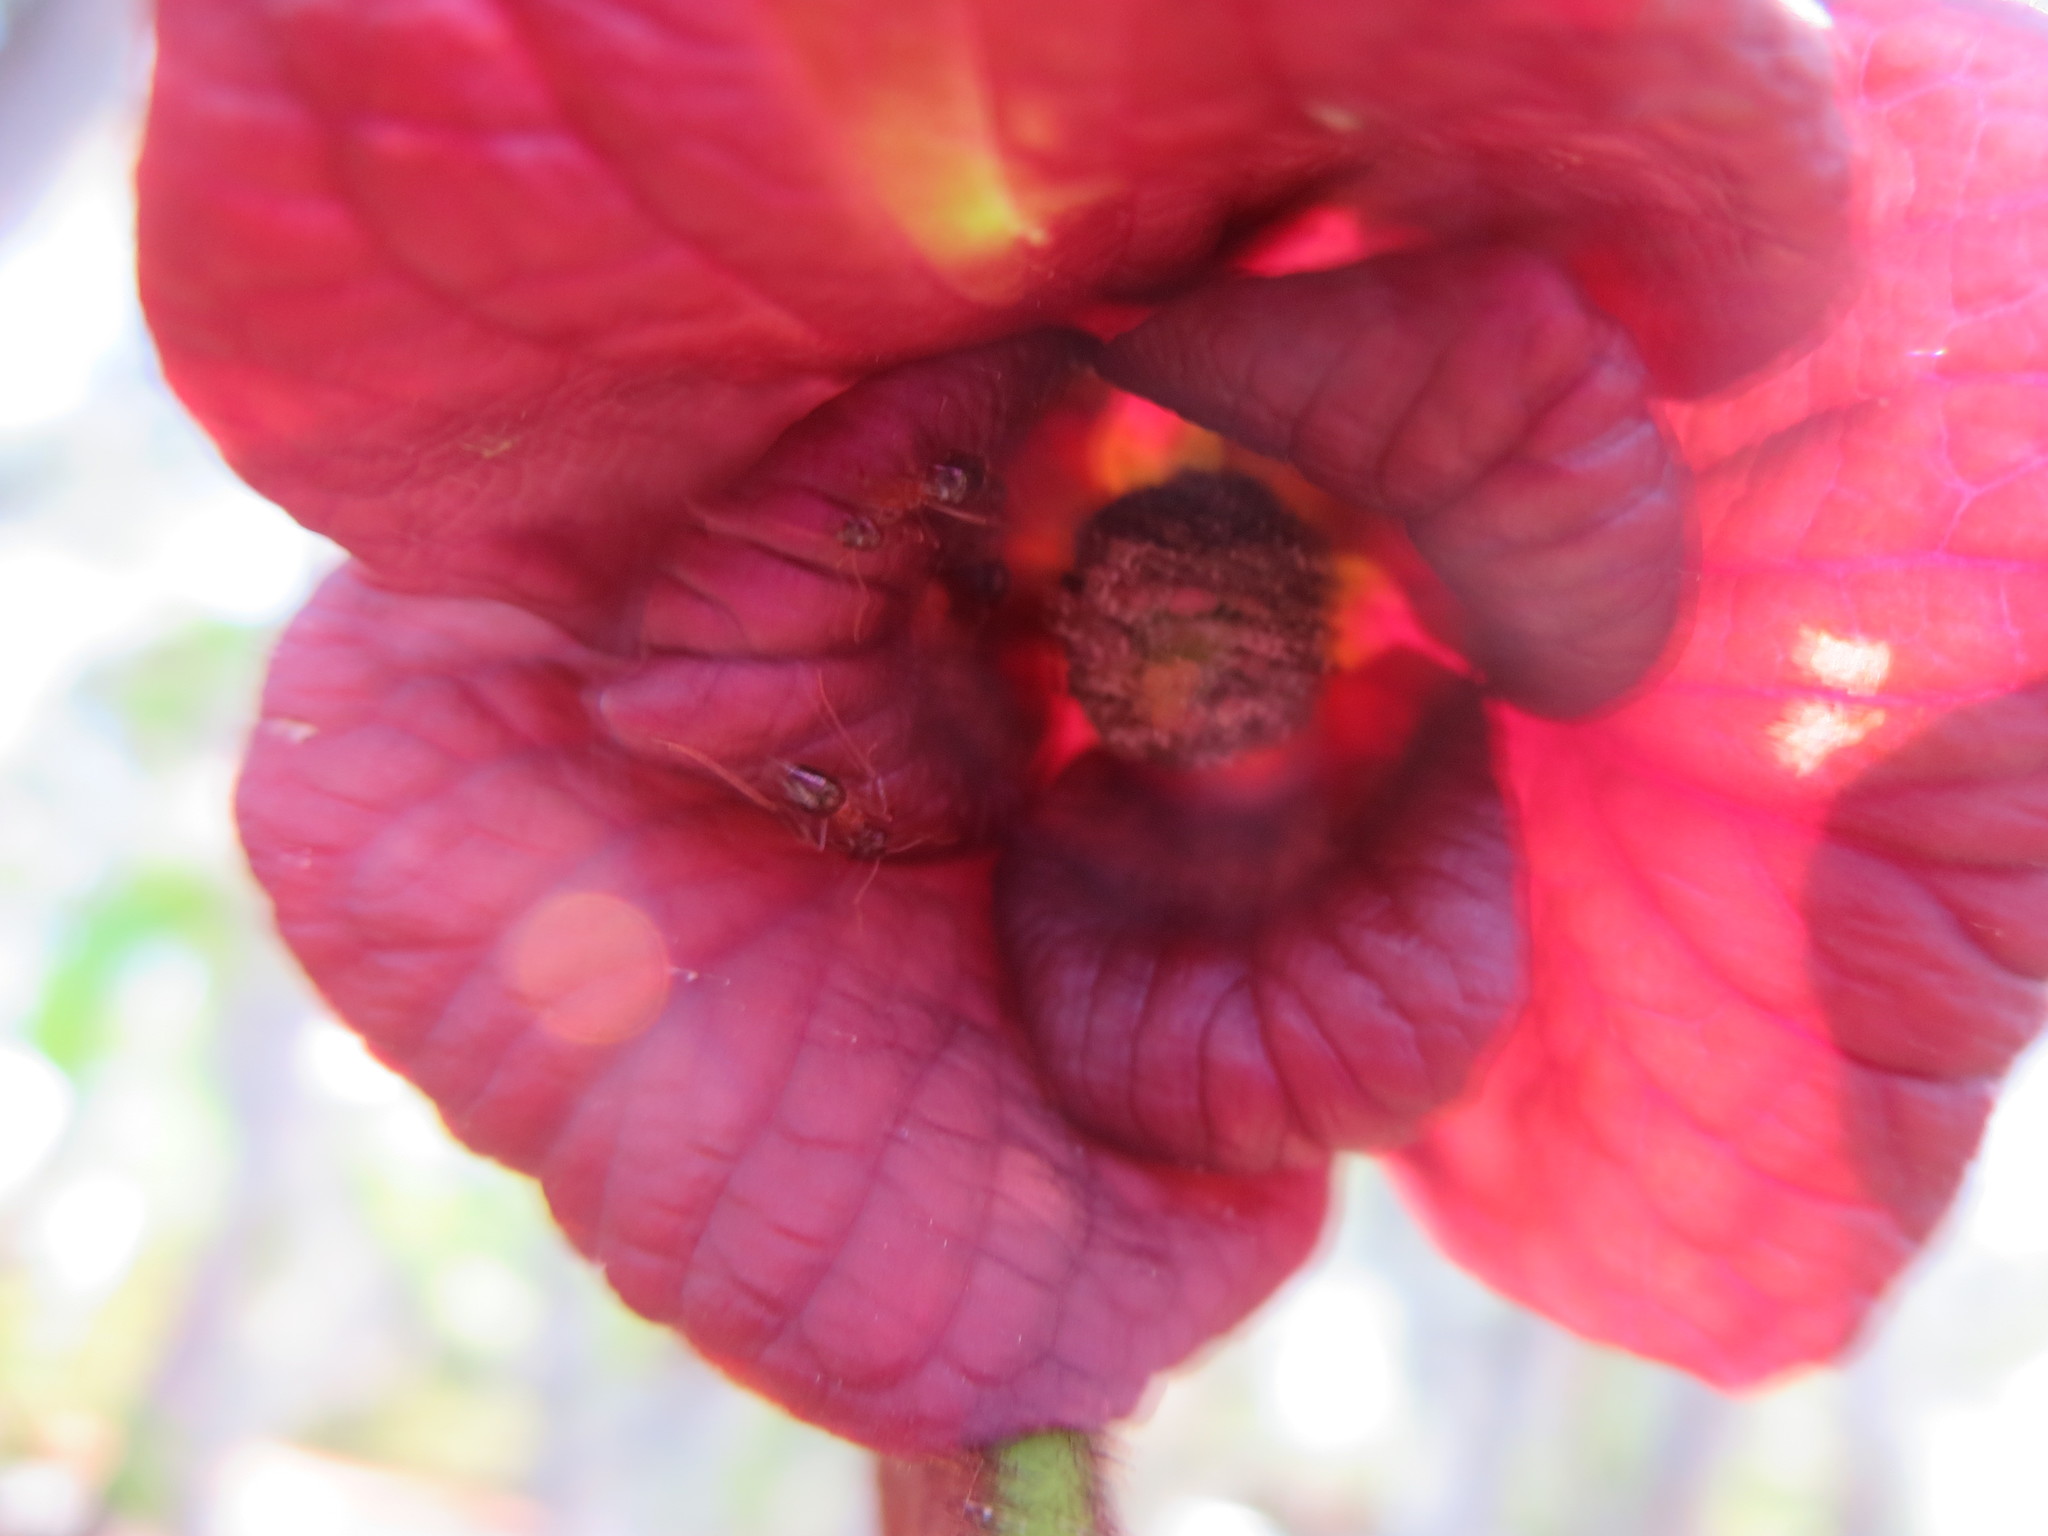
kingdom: Animalia
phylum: Arthropoda
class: Insecta
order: Hymenoptera
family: Formicidae
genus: Prenolepis
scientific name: Prenolepis imparis
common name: Small honey ant
